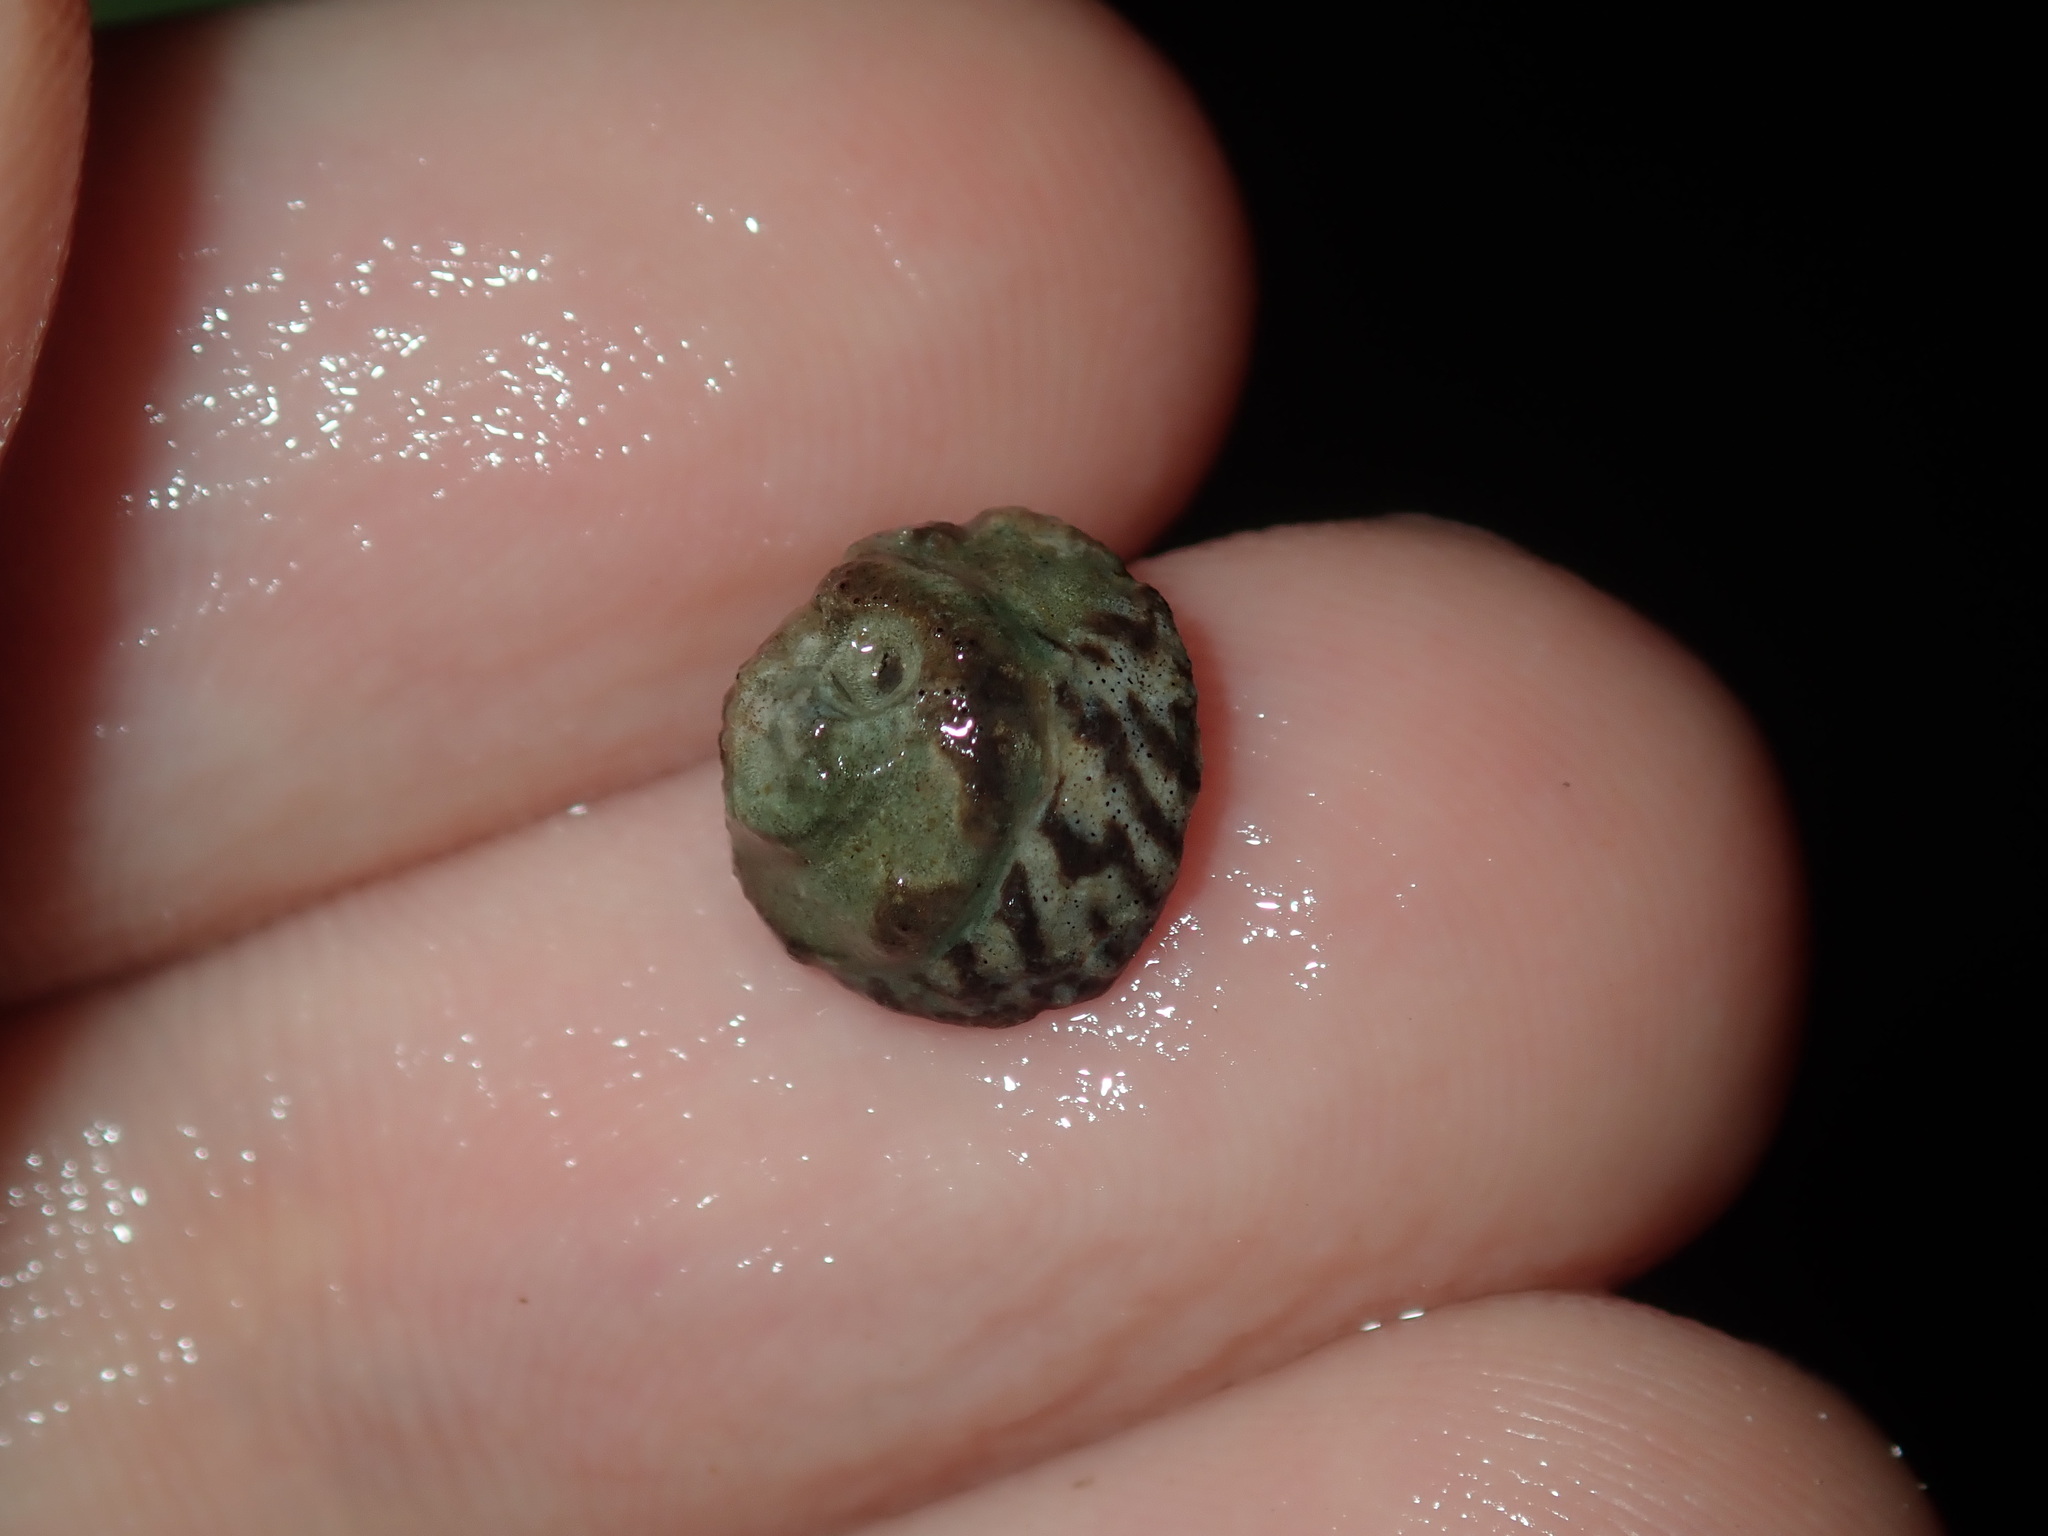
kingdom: Animalia
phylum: Mollusca
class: Gastropoda
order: Littorinimorpha
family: Littorinidae
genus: Bembicium
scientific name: Bembicium nanum
